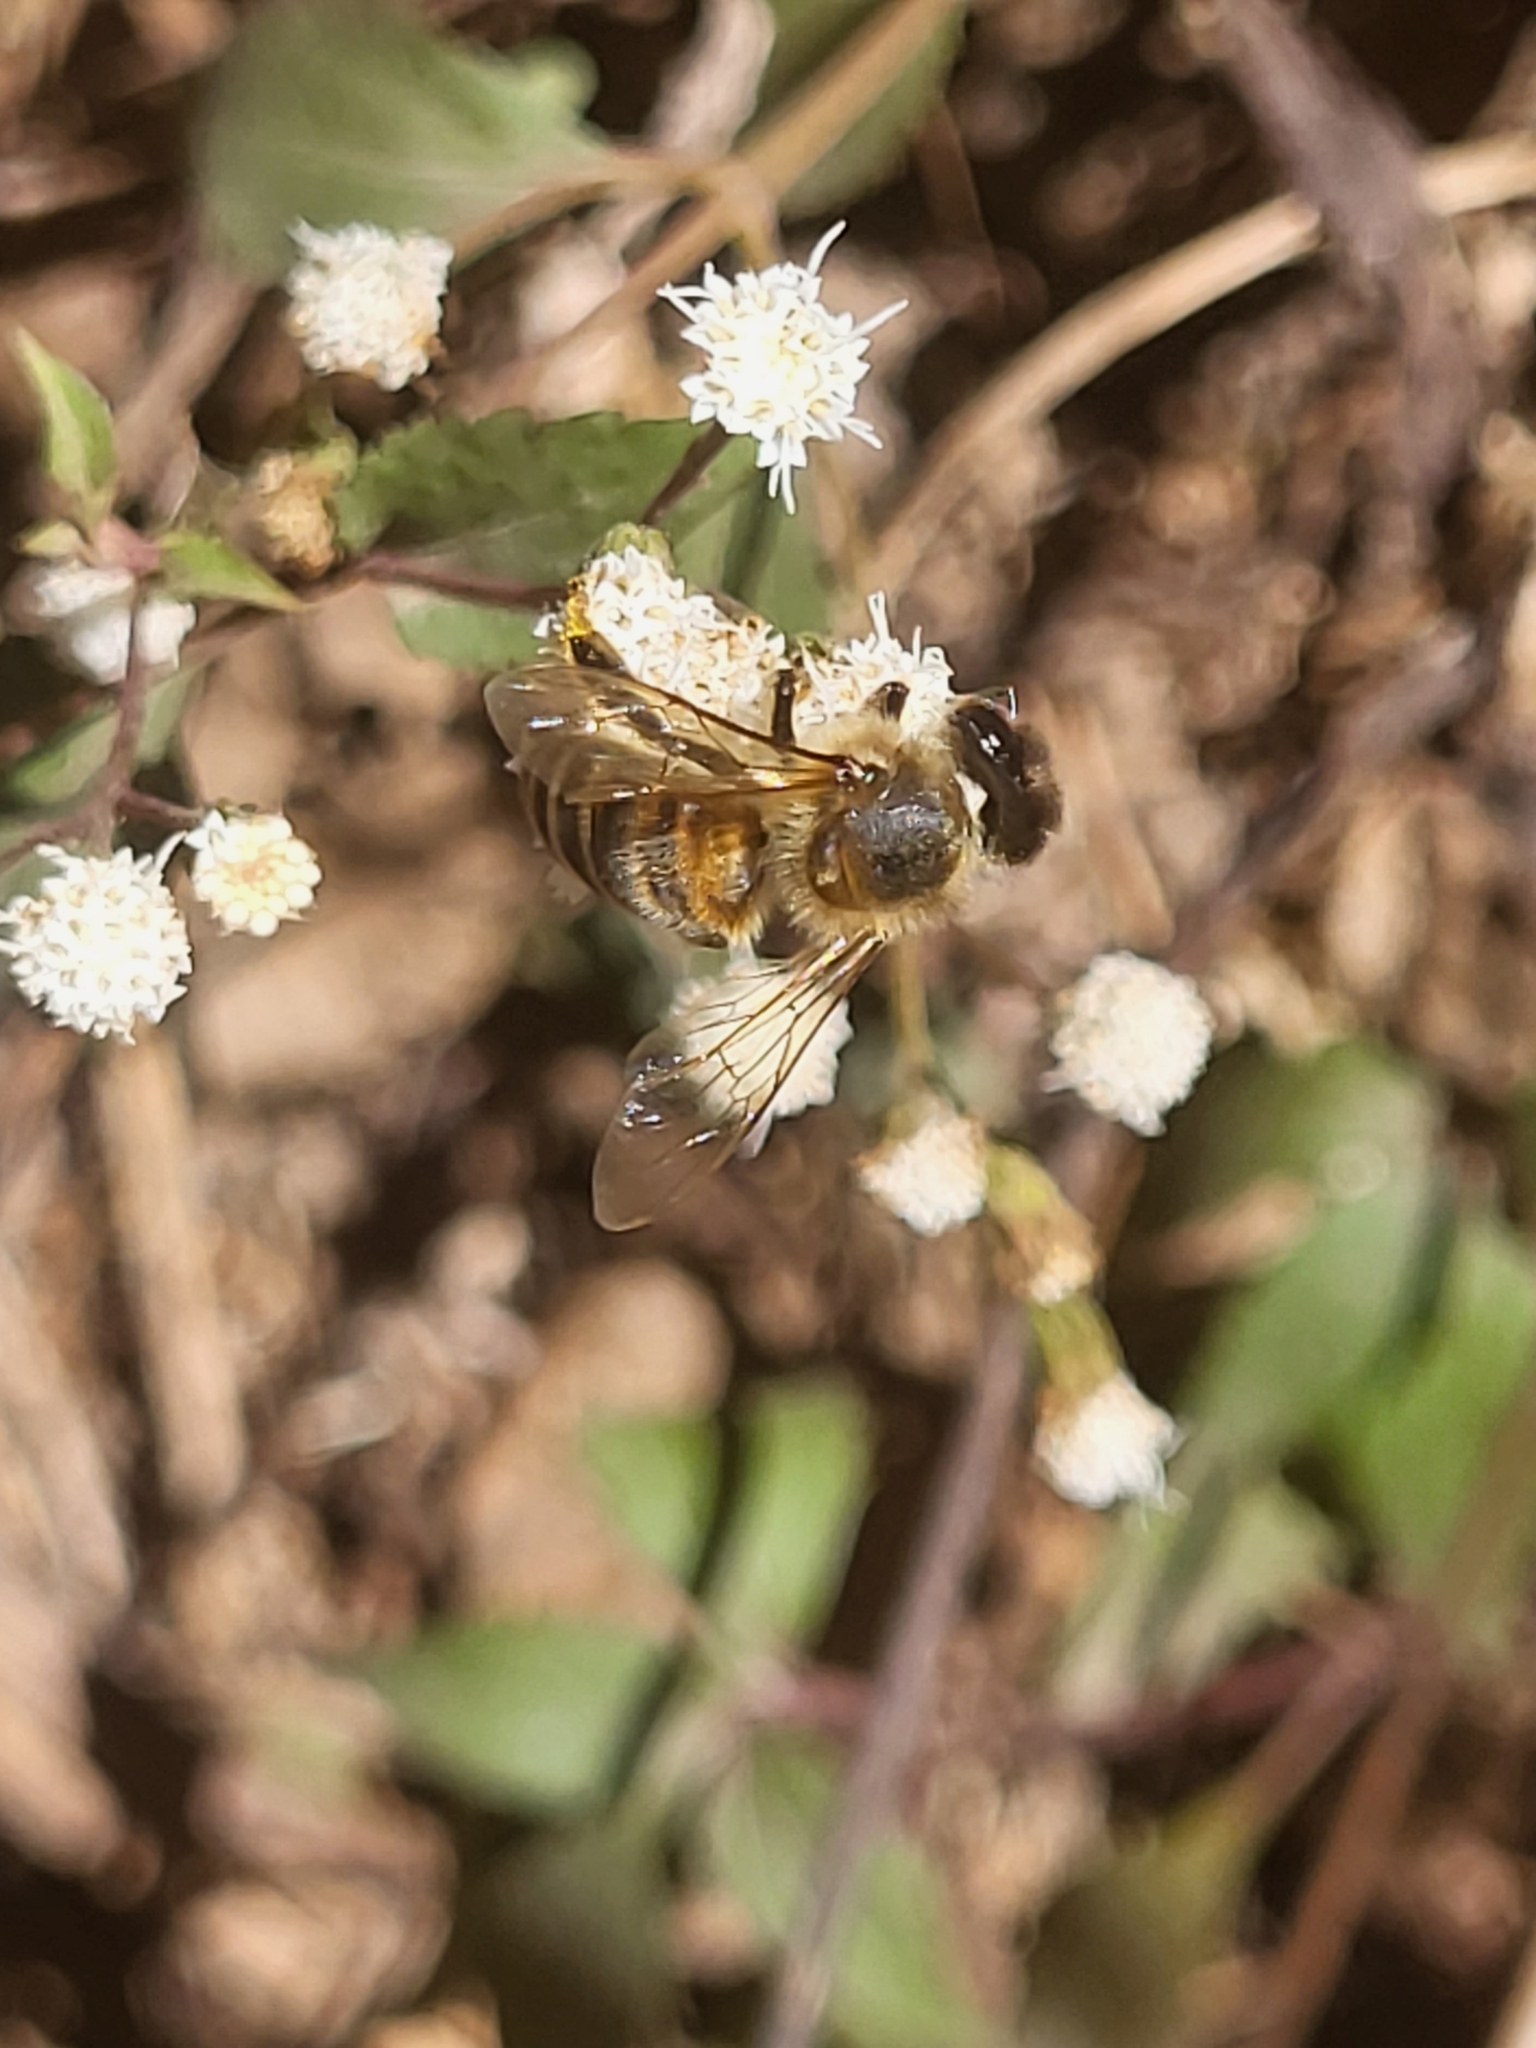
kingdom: Animalia
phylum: Arthropoda
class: Insecta
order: Hymenoptera
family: Apidae
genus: Apis
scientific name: Apis mellifera
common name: Honey bee
